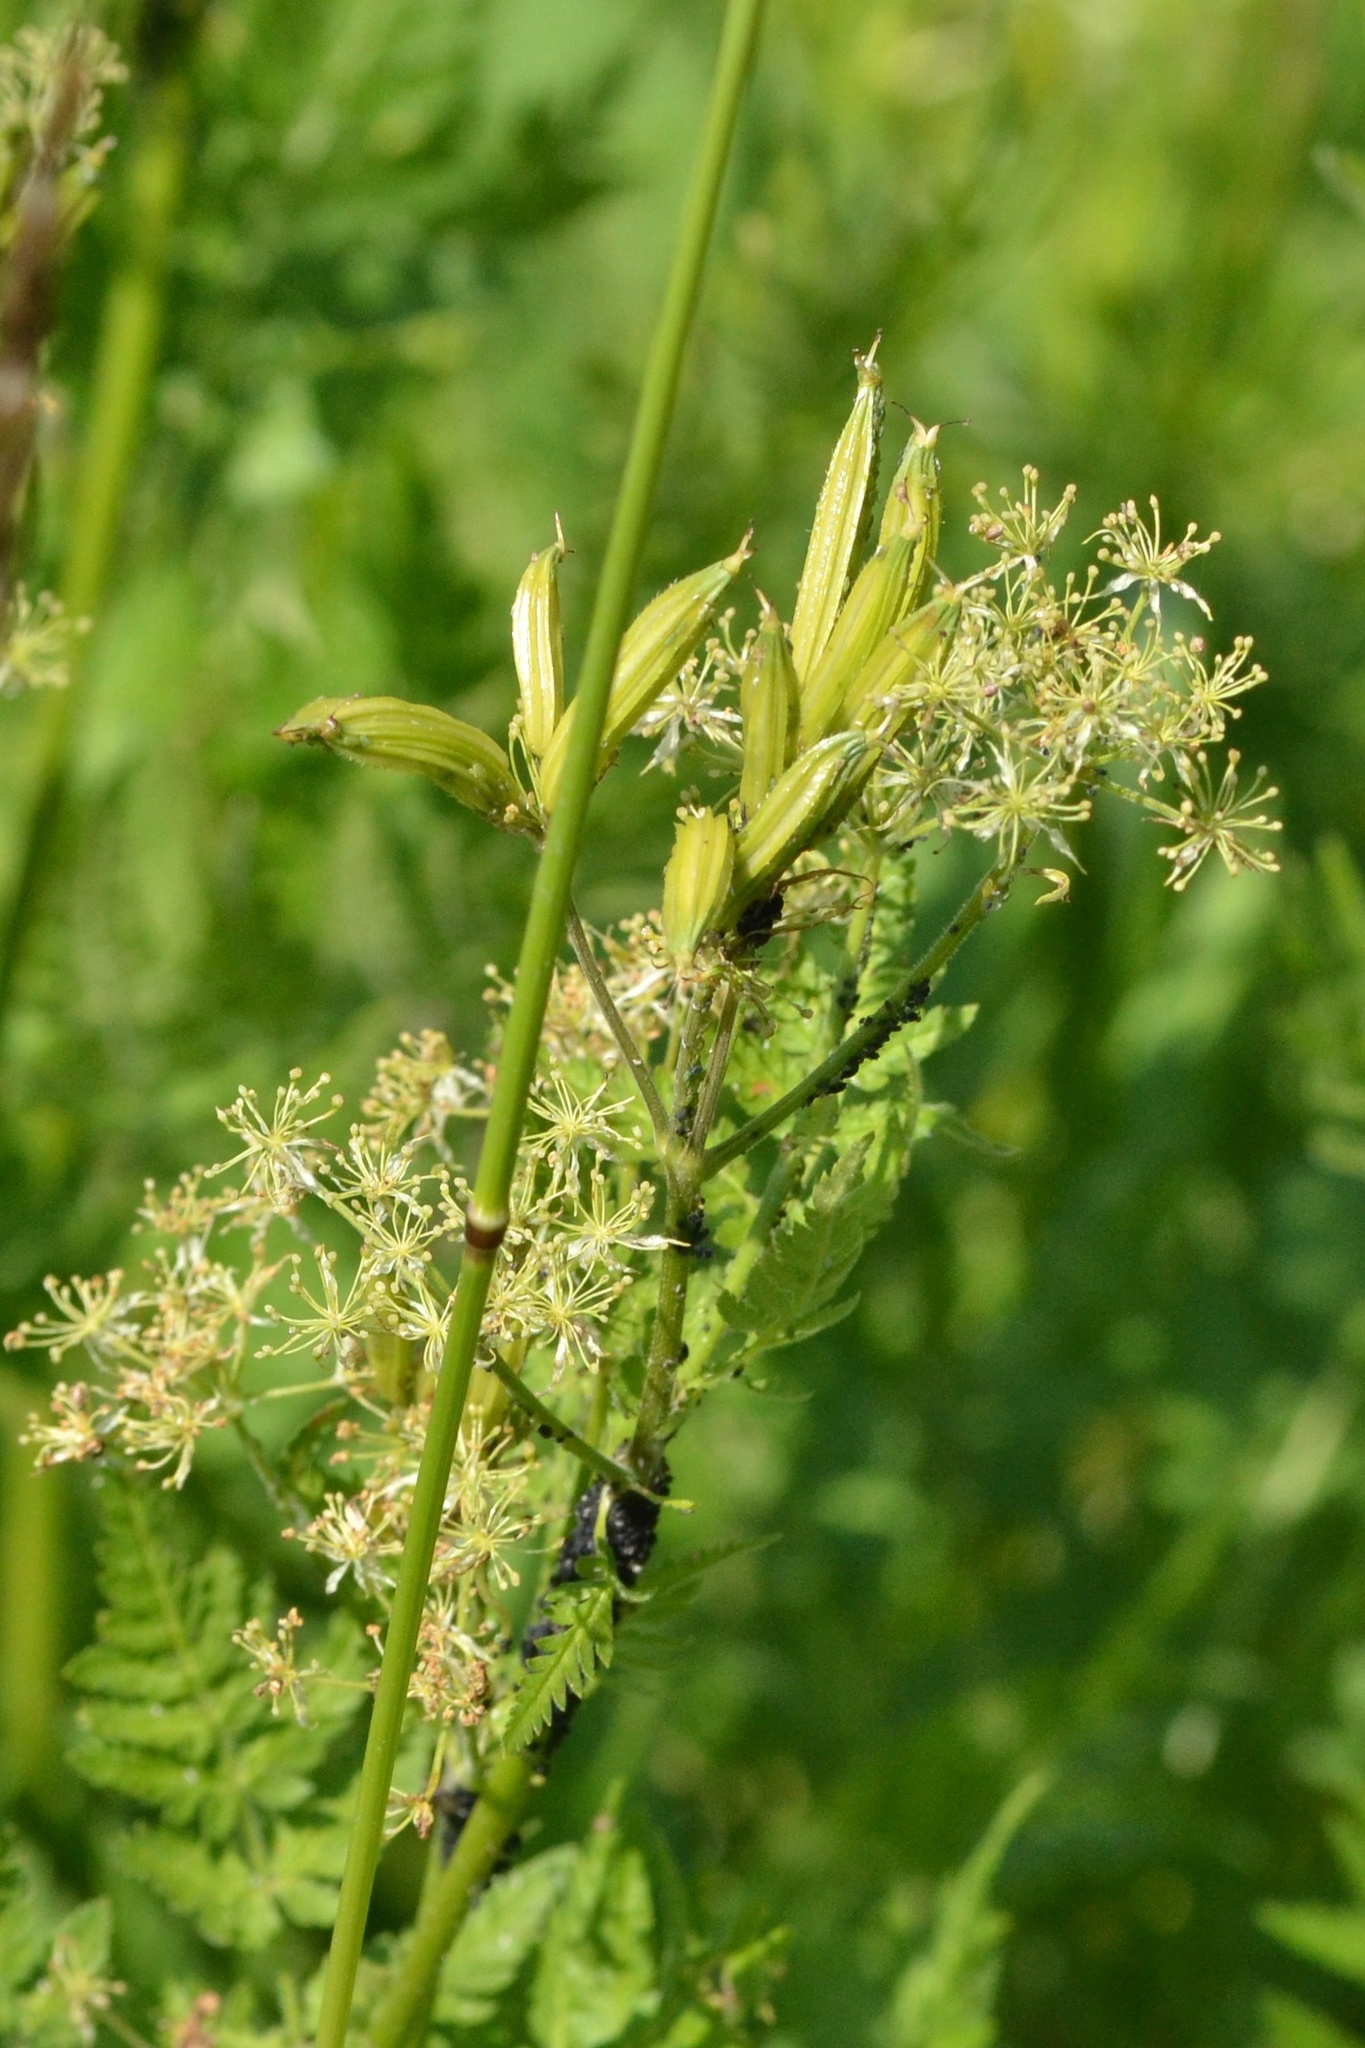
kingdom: Plantae
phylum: Tracheophyta
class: Magnoliopsida
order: Apiales
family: Apiaceae
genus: Myrrhis
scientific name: Myrrhis odorata
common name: Sweet cicely
